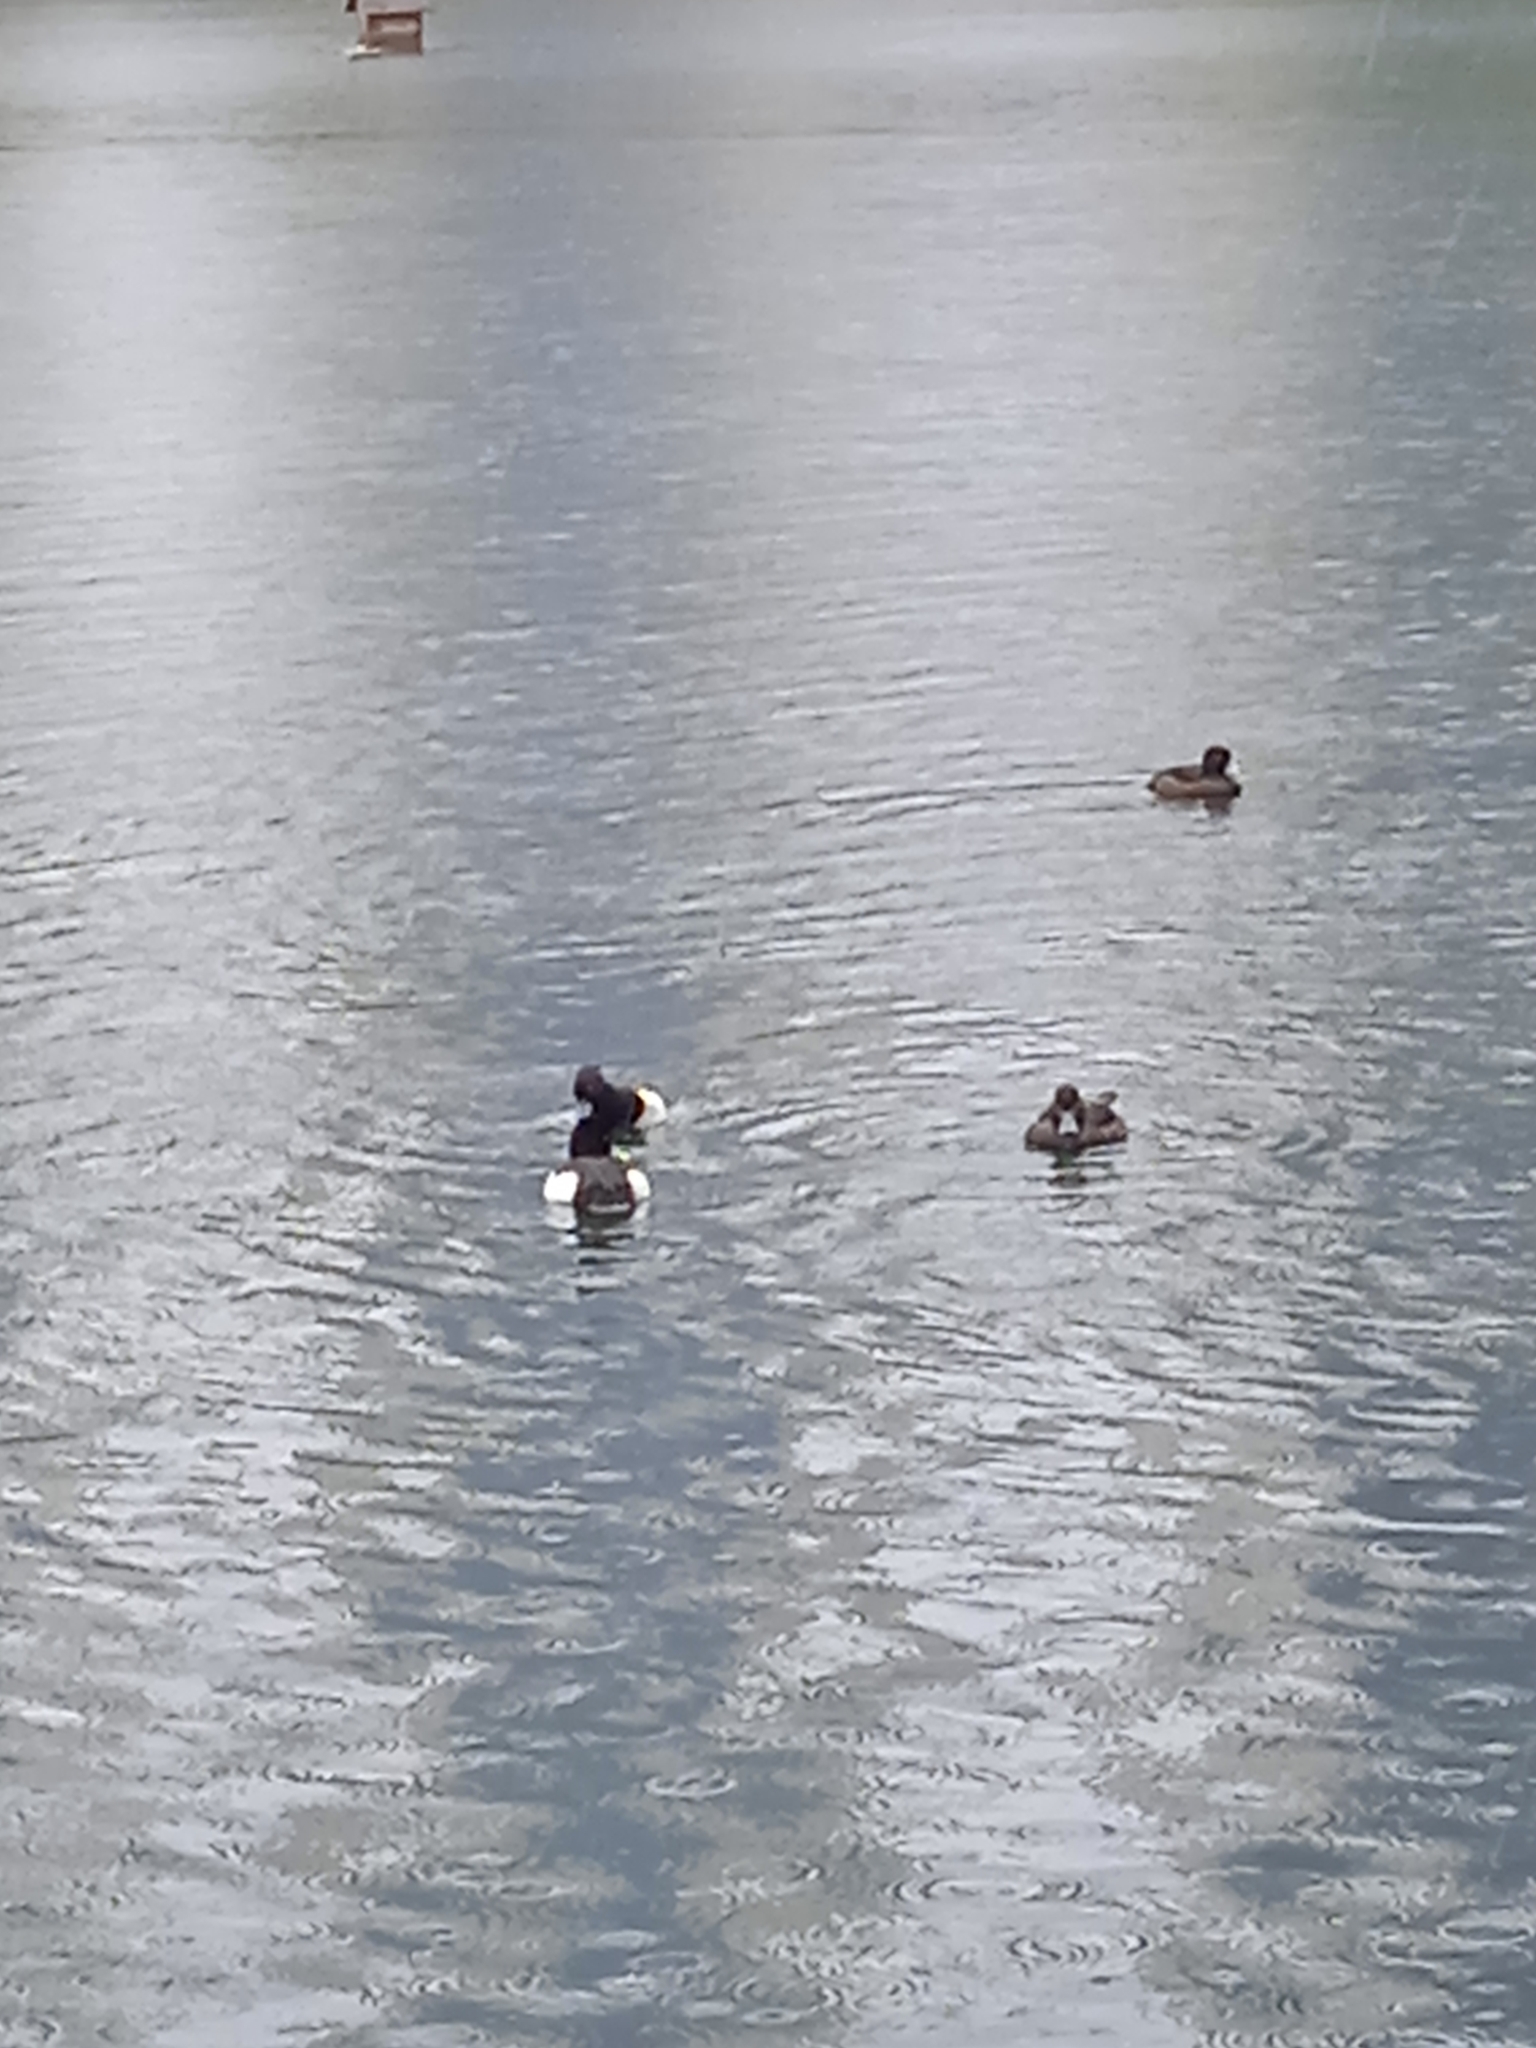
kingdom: Animalia
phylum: Chordata
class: Aves
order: Anseriformes
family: Anatidae
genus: Aythya
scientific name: Aythya fuligula
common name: Tufted duck
